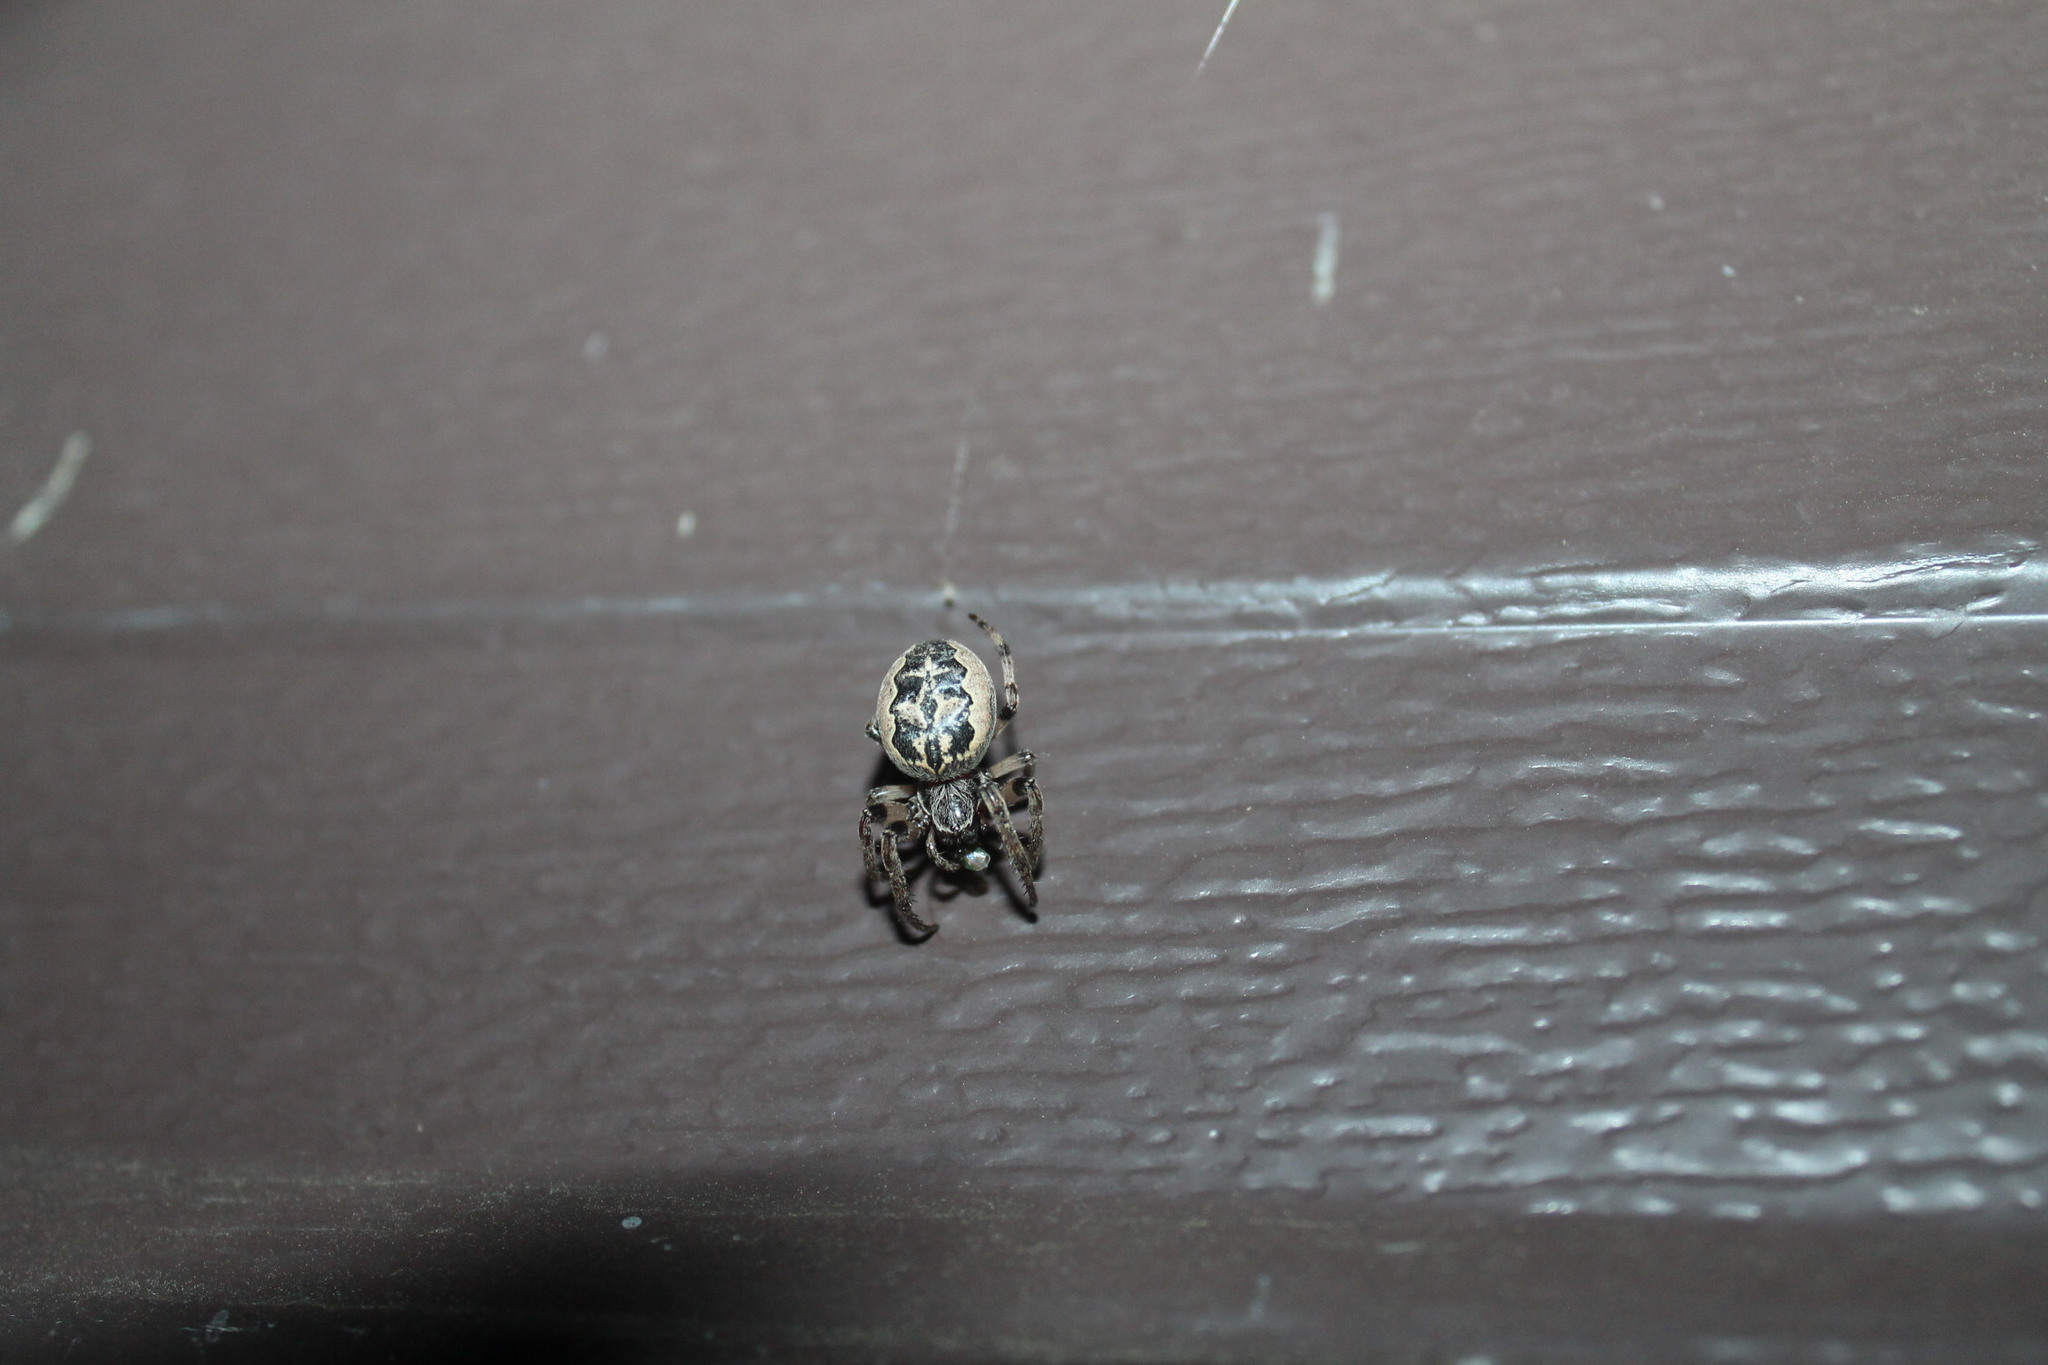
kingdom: Animalia
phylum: Arthropoda
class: Arachnida
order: Araneae
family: Araneidae
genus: Larinioides
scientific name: Larinioides cornutus
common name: Furrow orbweaver
